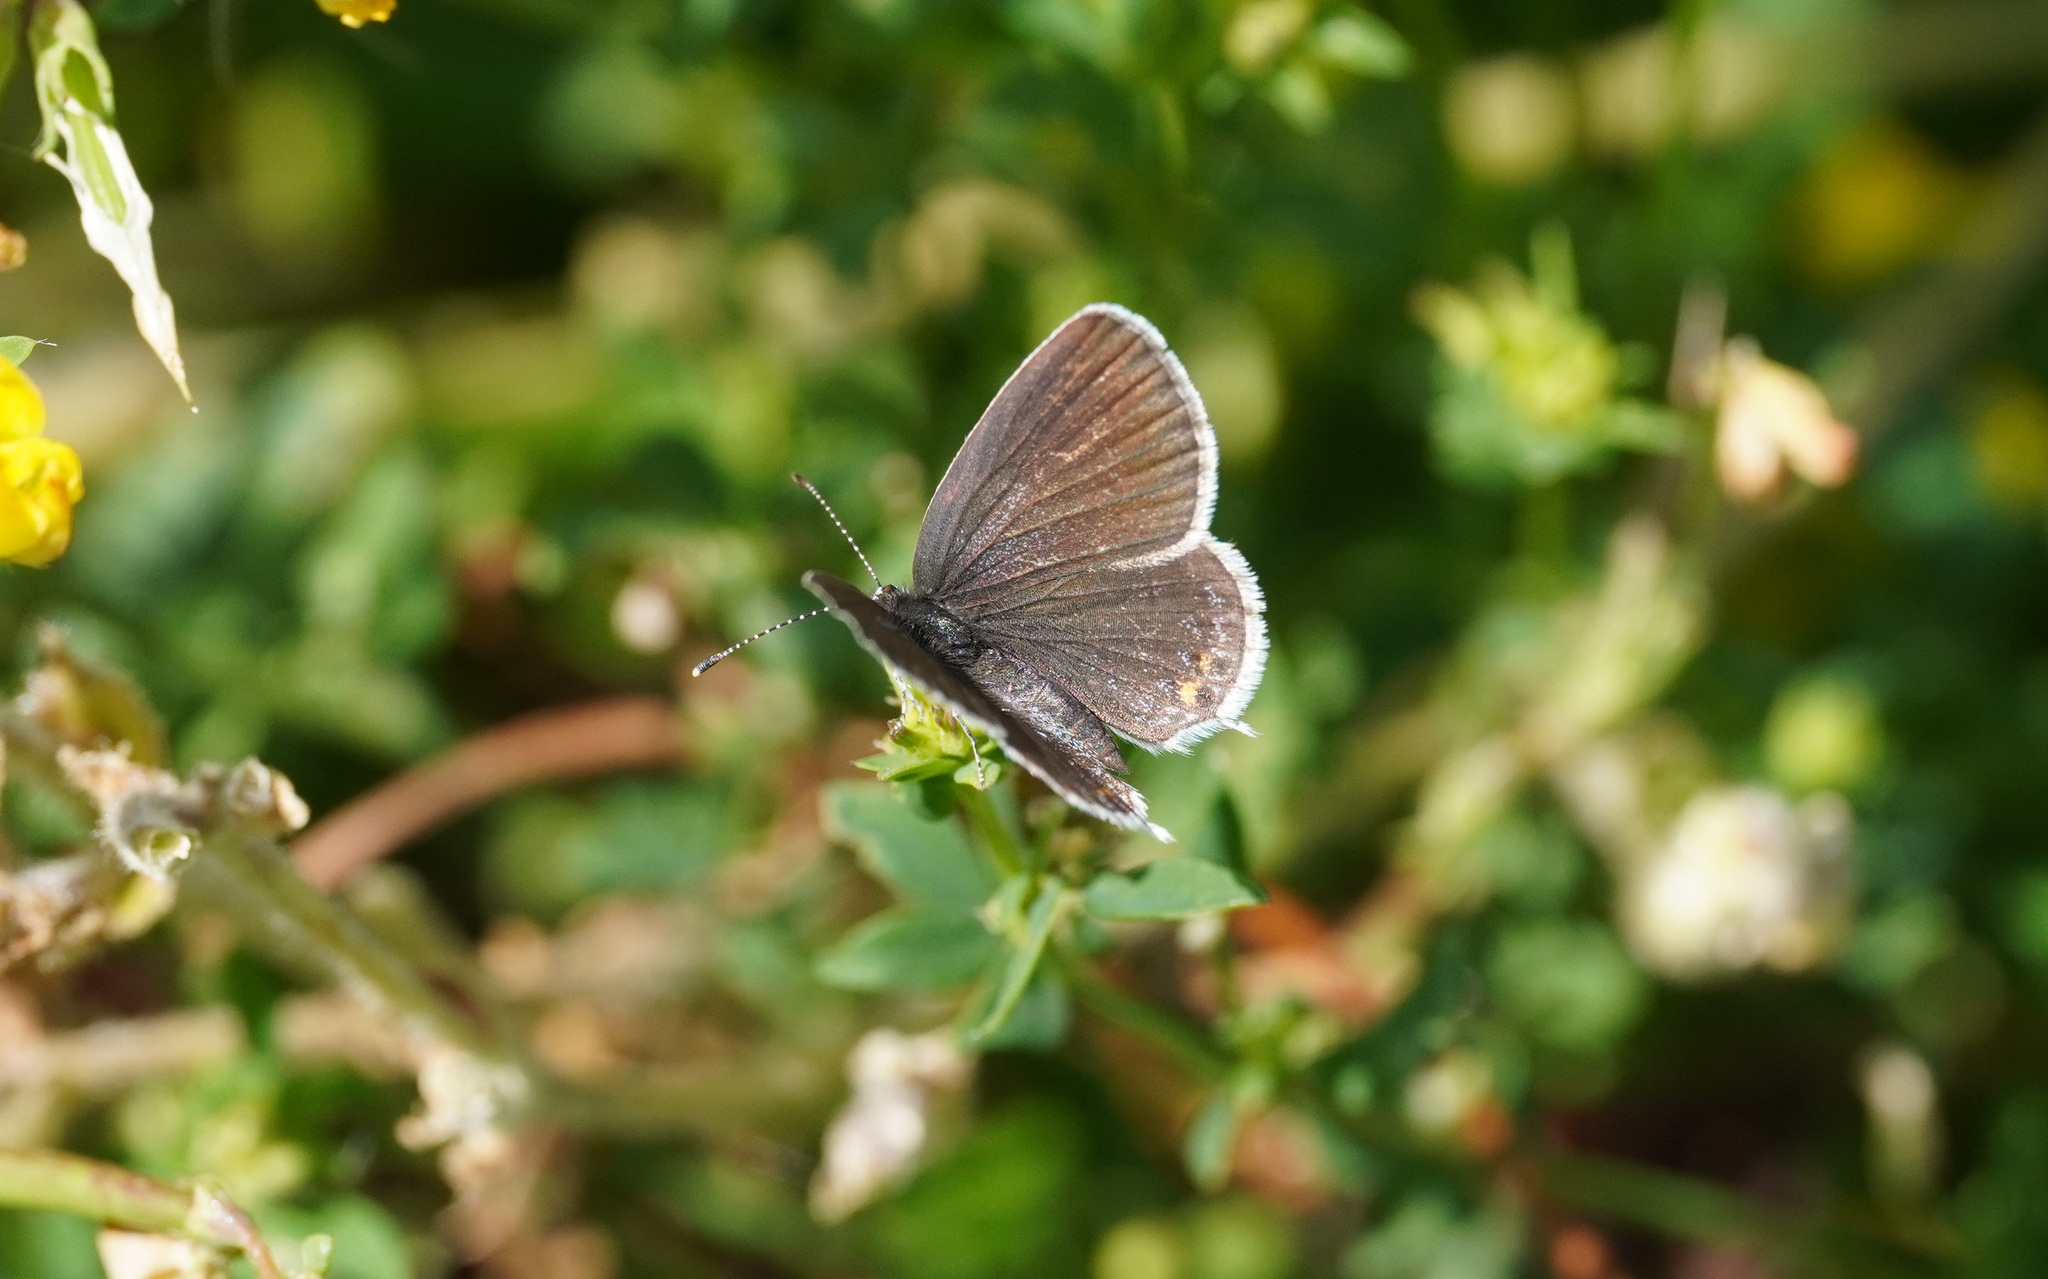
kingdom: Animalia
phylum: Arthropoda
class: Insecta
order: Lepidoptera
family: Lycaenidae
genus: Elkalyce
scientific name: Elkalyce argiades
